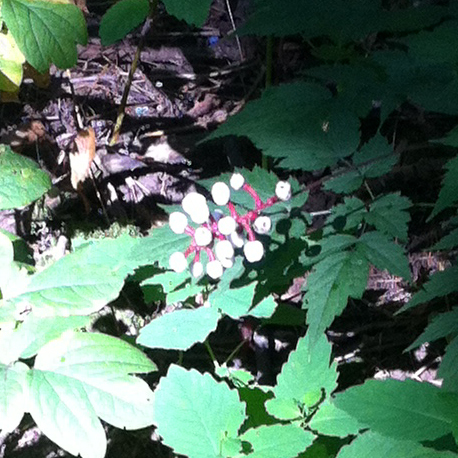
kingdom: Plantae
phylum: Tracheophyta
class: Magnoliopsida
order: Ranunculales
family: Ranunculaceae
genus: Actaea
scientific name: Actaea pachypoda
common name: Doll's-eyes
